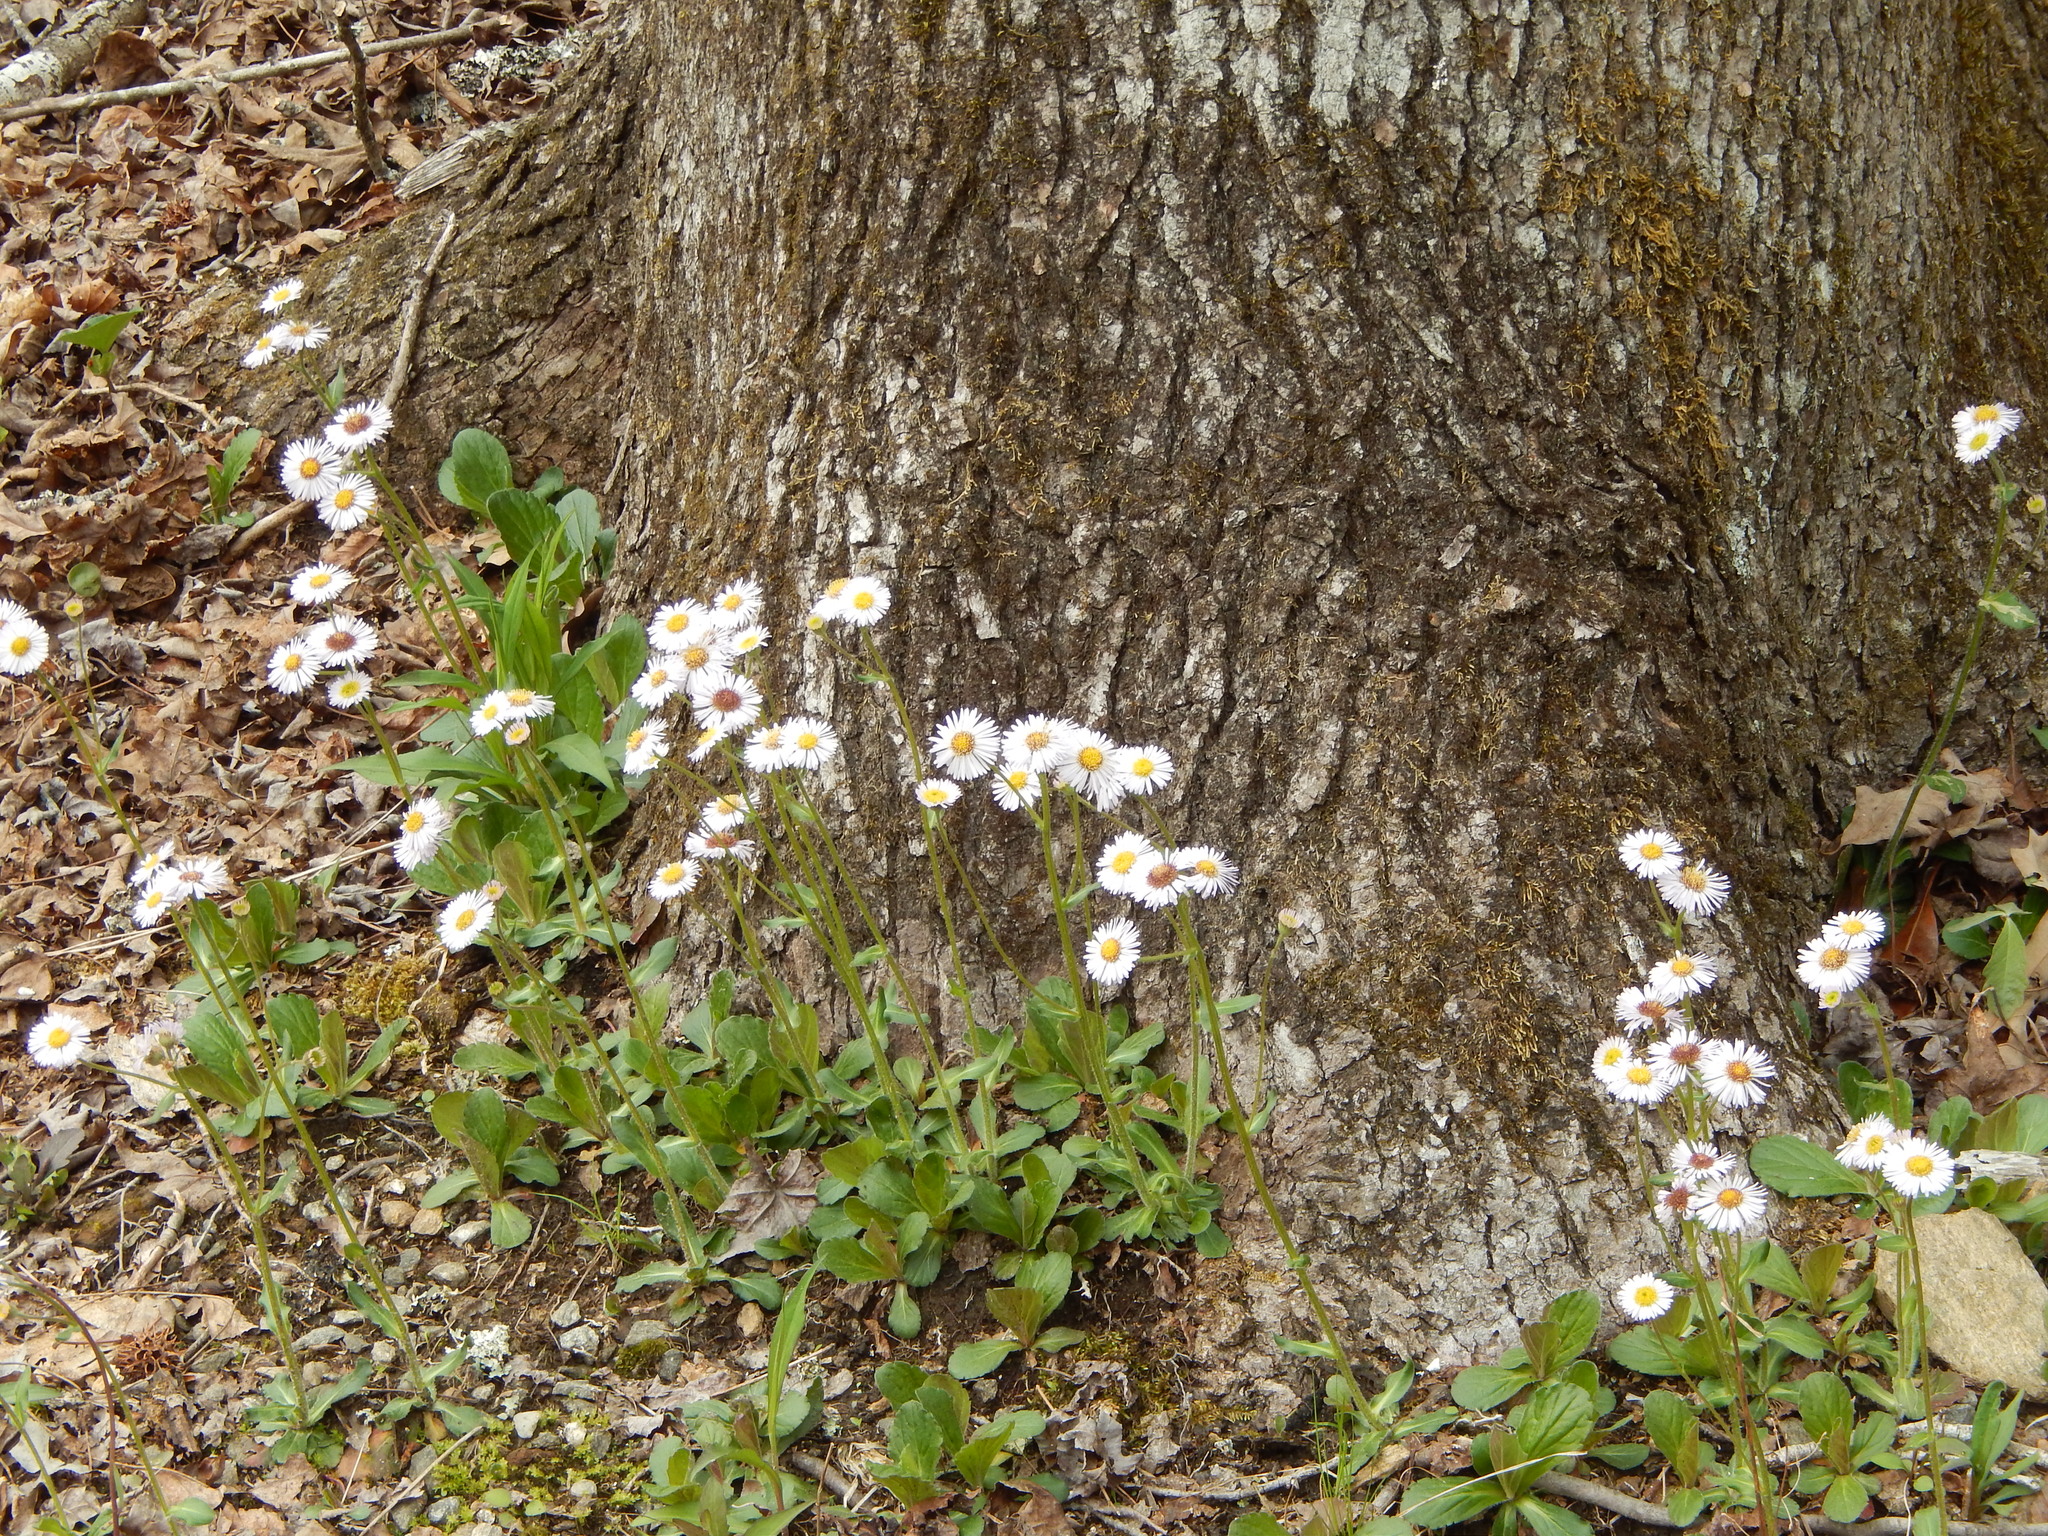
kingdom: Plantae
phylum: Tracheophyta
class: Magnoliopsida
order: Asterales
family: Asteraceae
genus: Erigeron
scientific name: Erigeron pulchellus
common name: Hairy fleabane
